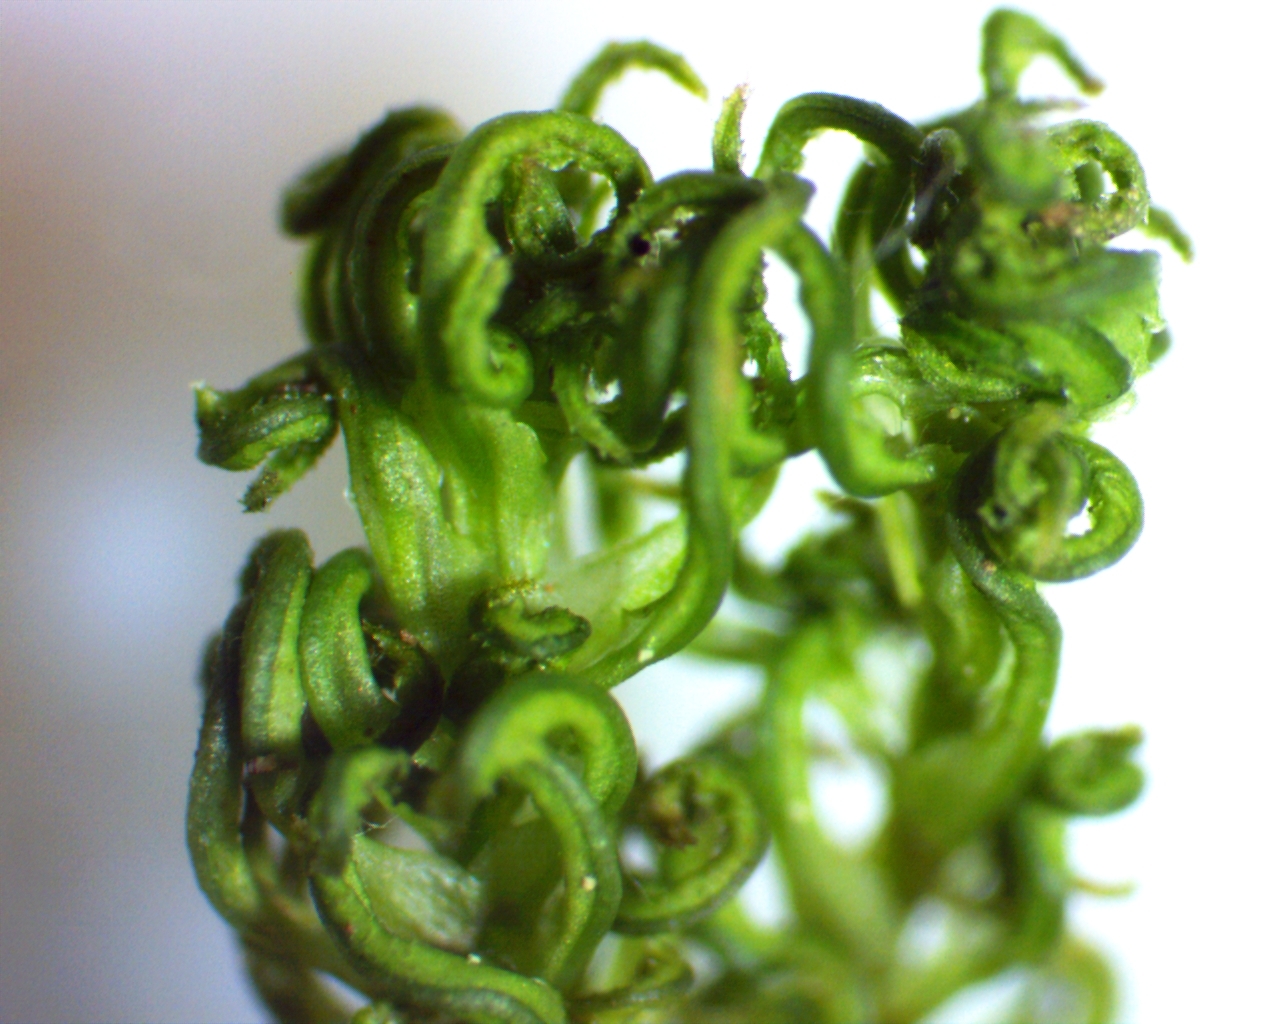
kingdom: Plantae
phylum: Bryophyta
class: Polytrichopsida
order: Polytrichales
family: Polytrichaceae
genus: Atrichum
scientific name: Atrichum angustatum
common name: Lesser smoothcap
